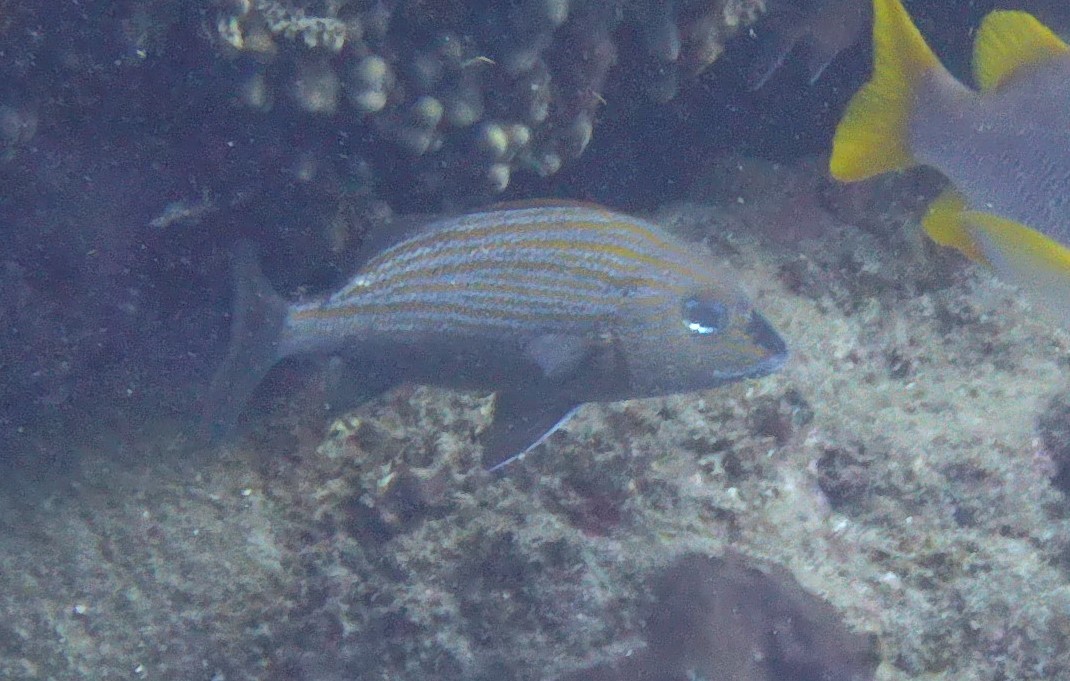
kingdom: Animalia
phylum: Chordata
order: Perciformes
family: Haemulidae
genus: Haemulon
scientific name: Haemulon carbonarium
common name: Caesar grunt
